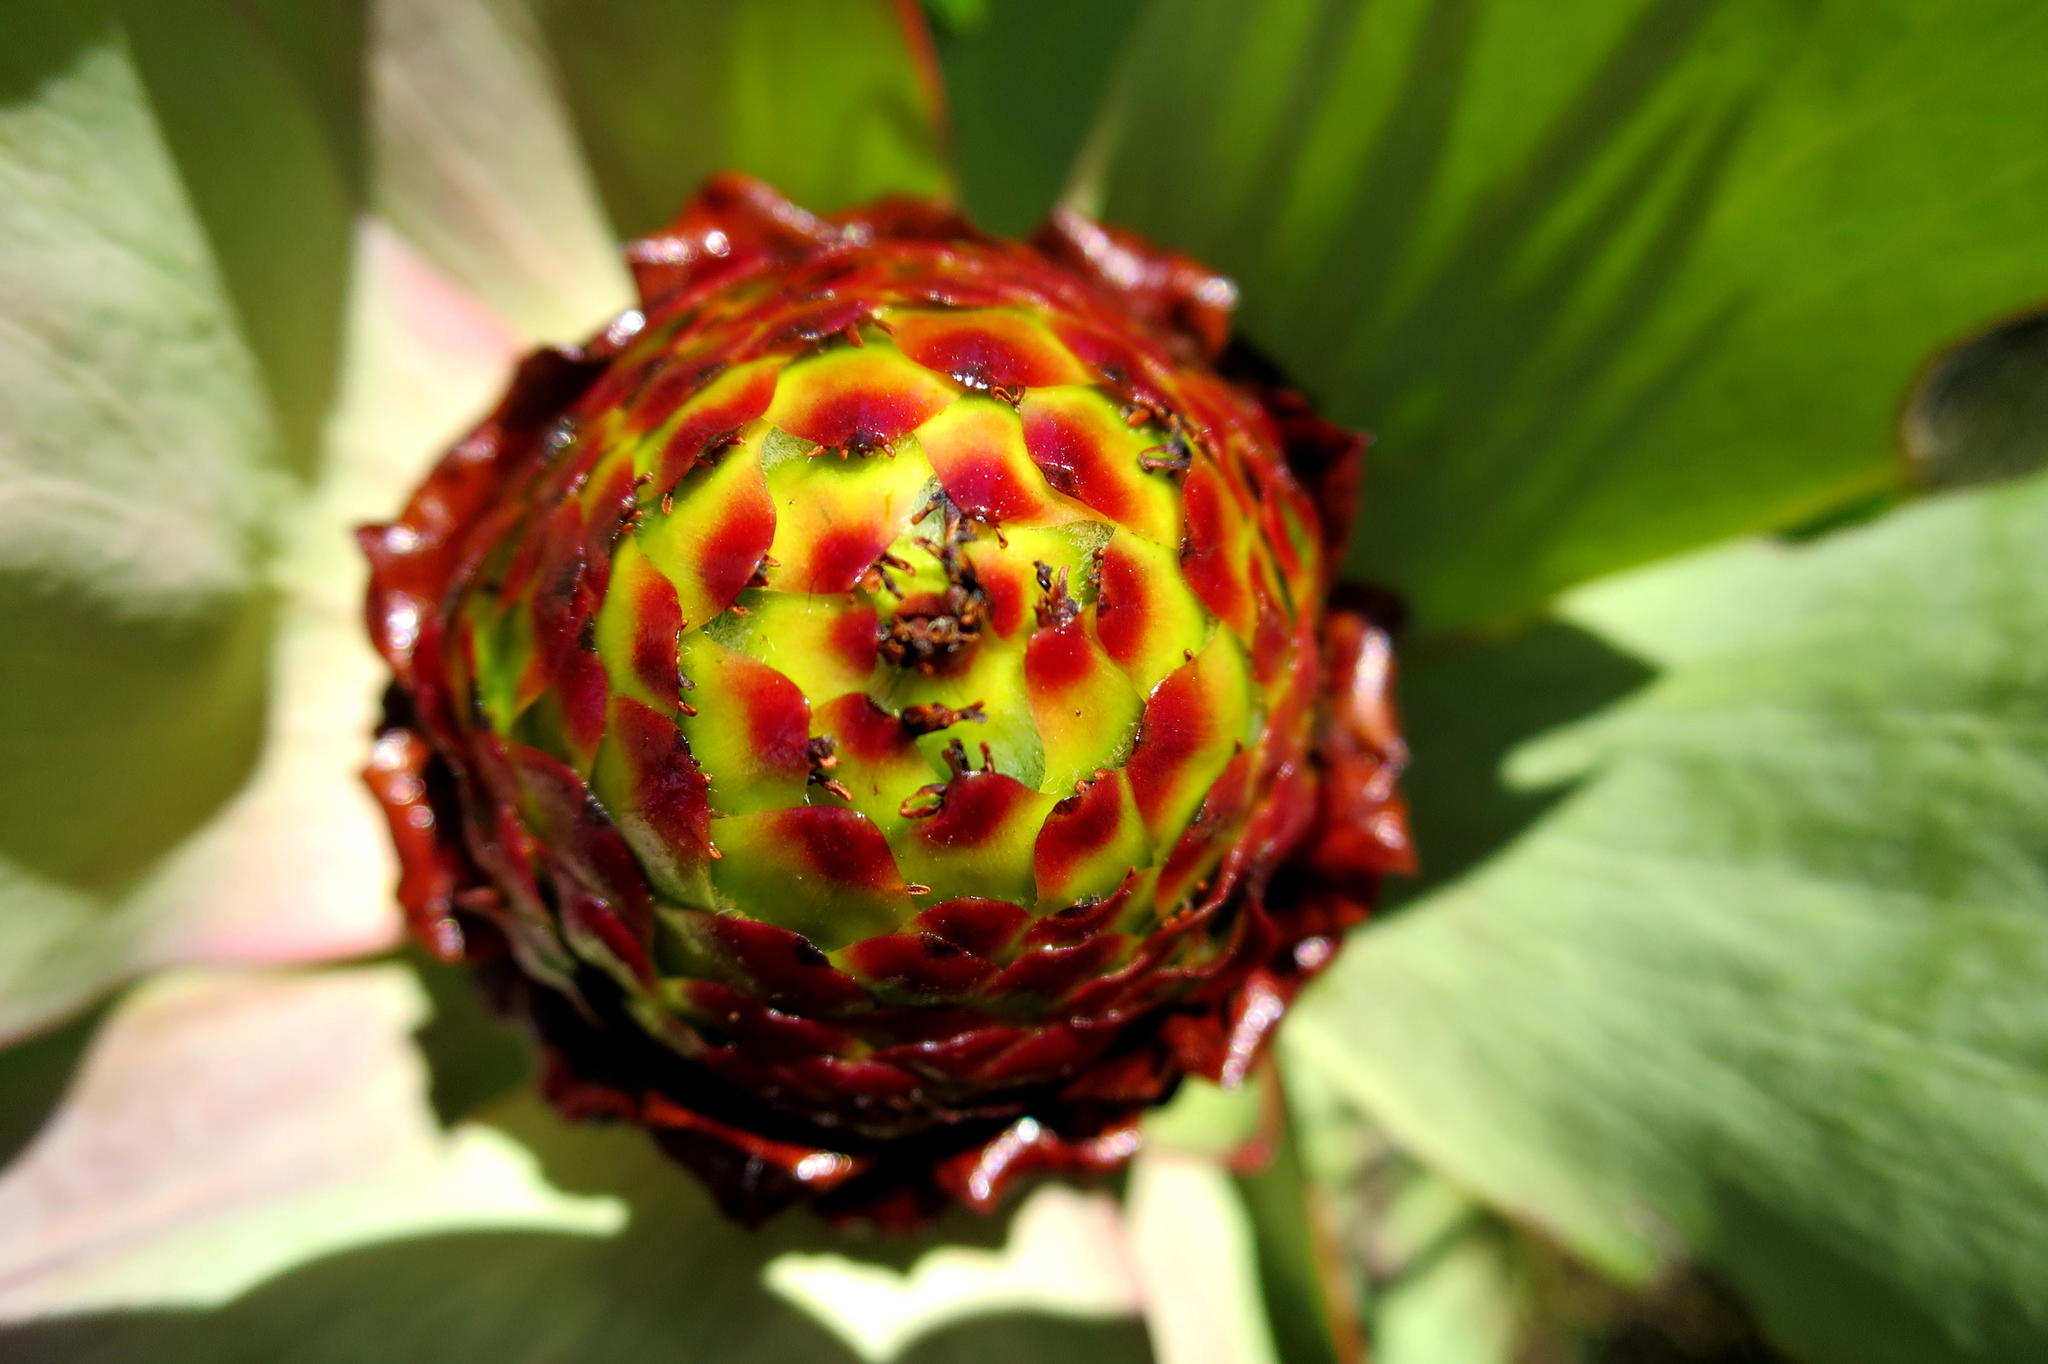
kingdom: Plantae
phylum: Tracheophyta
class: Magnoliopsida
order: Proteales
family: Proteaceae
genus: Leucadendron
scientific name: Leucadendron tinctum
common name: Spicy conebush
